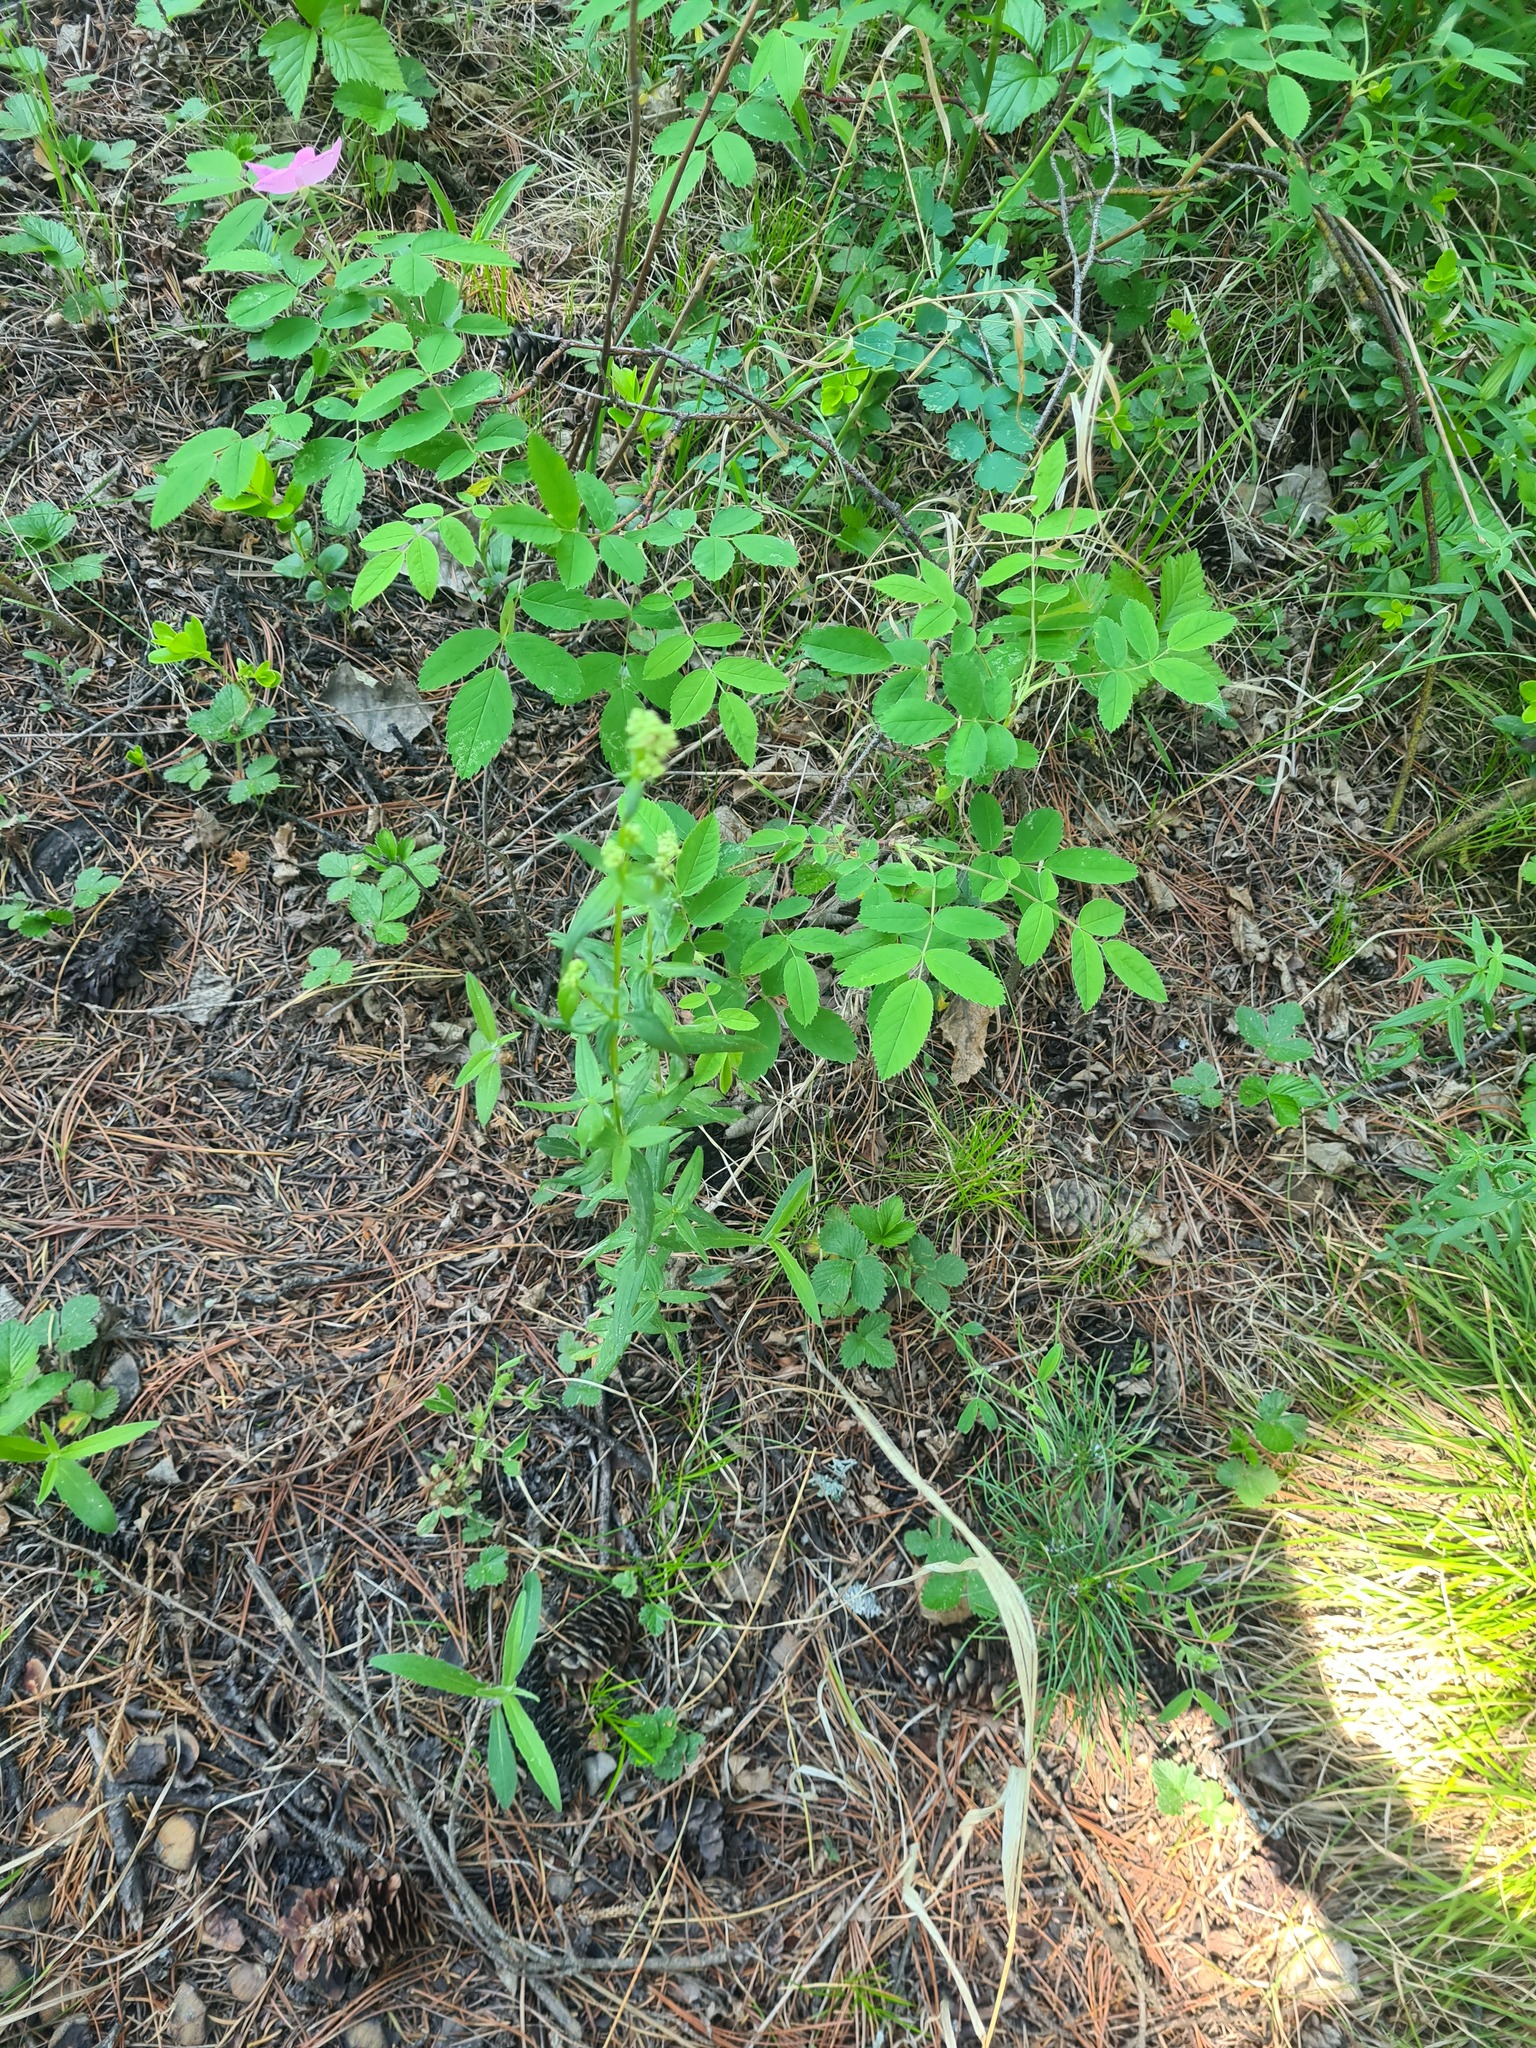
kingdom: Plantae
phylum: Tracheophyta
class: Magnoliopsida
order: Apiales
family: Apiaceae
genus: Pleurospermum
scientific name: Pleurospermum uralense
